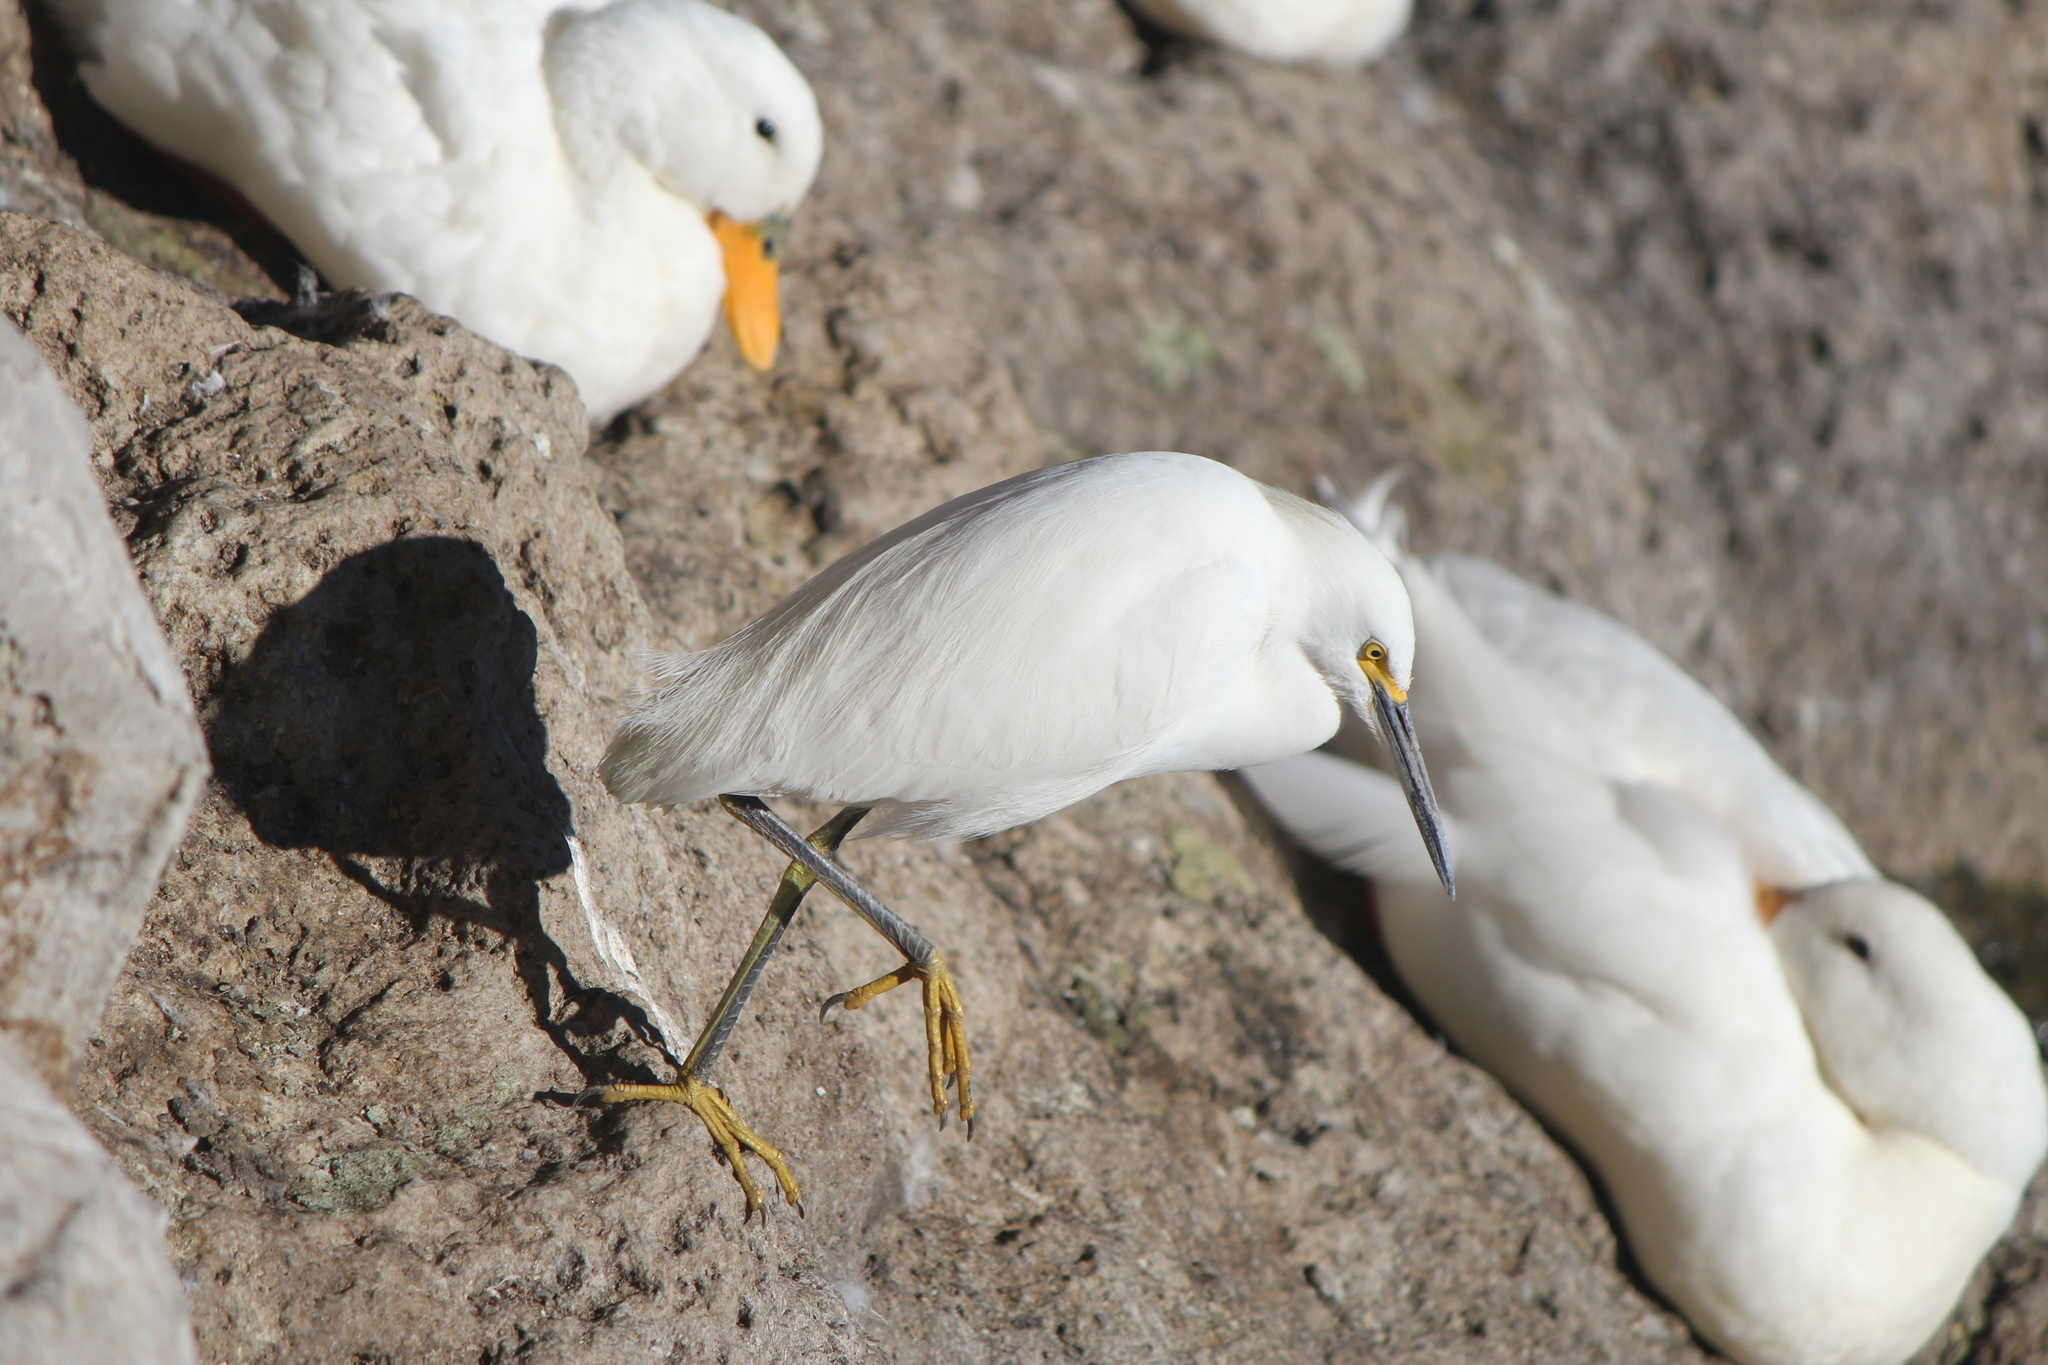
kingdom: Animalia
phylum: Chordata
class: Aves
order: Pelecaniformes
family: Ardeidae
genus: Egretta
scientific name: Egretta thula
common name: Snowy egret
